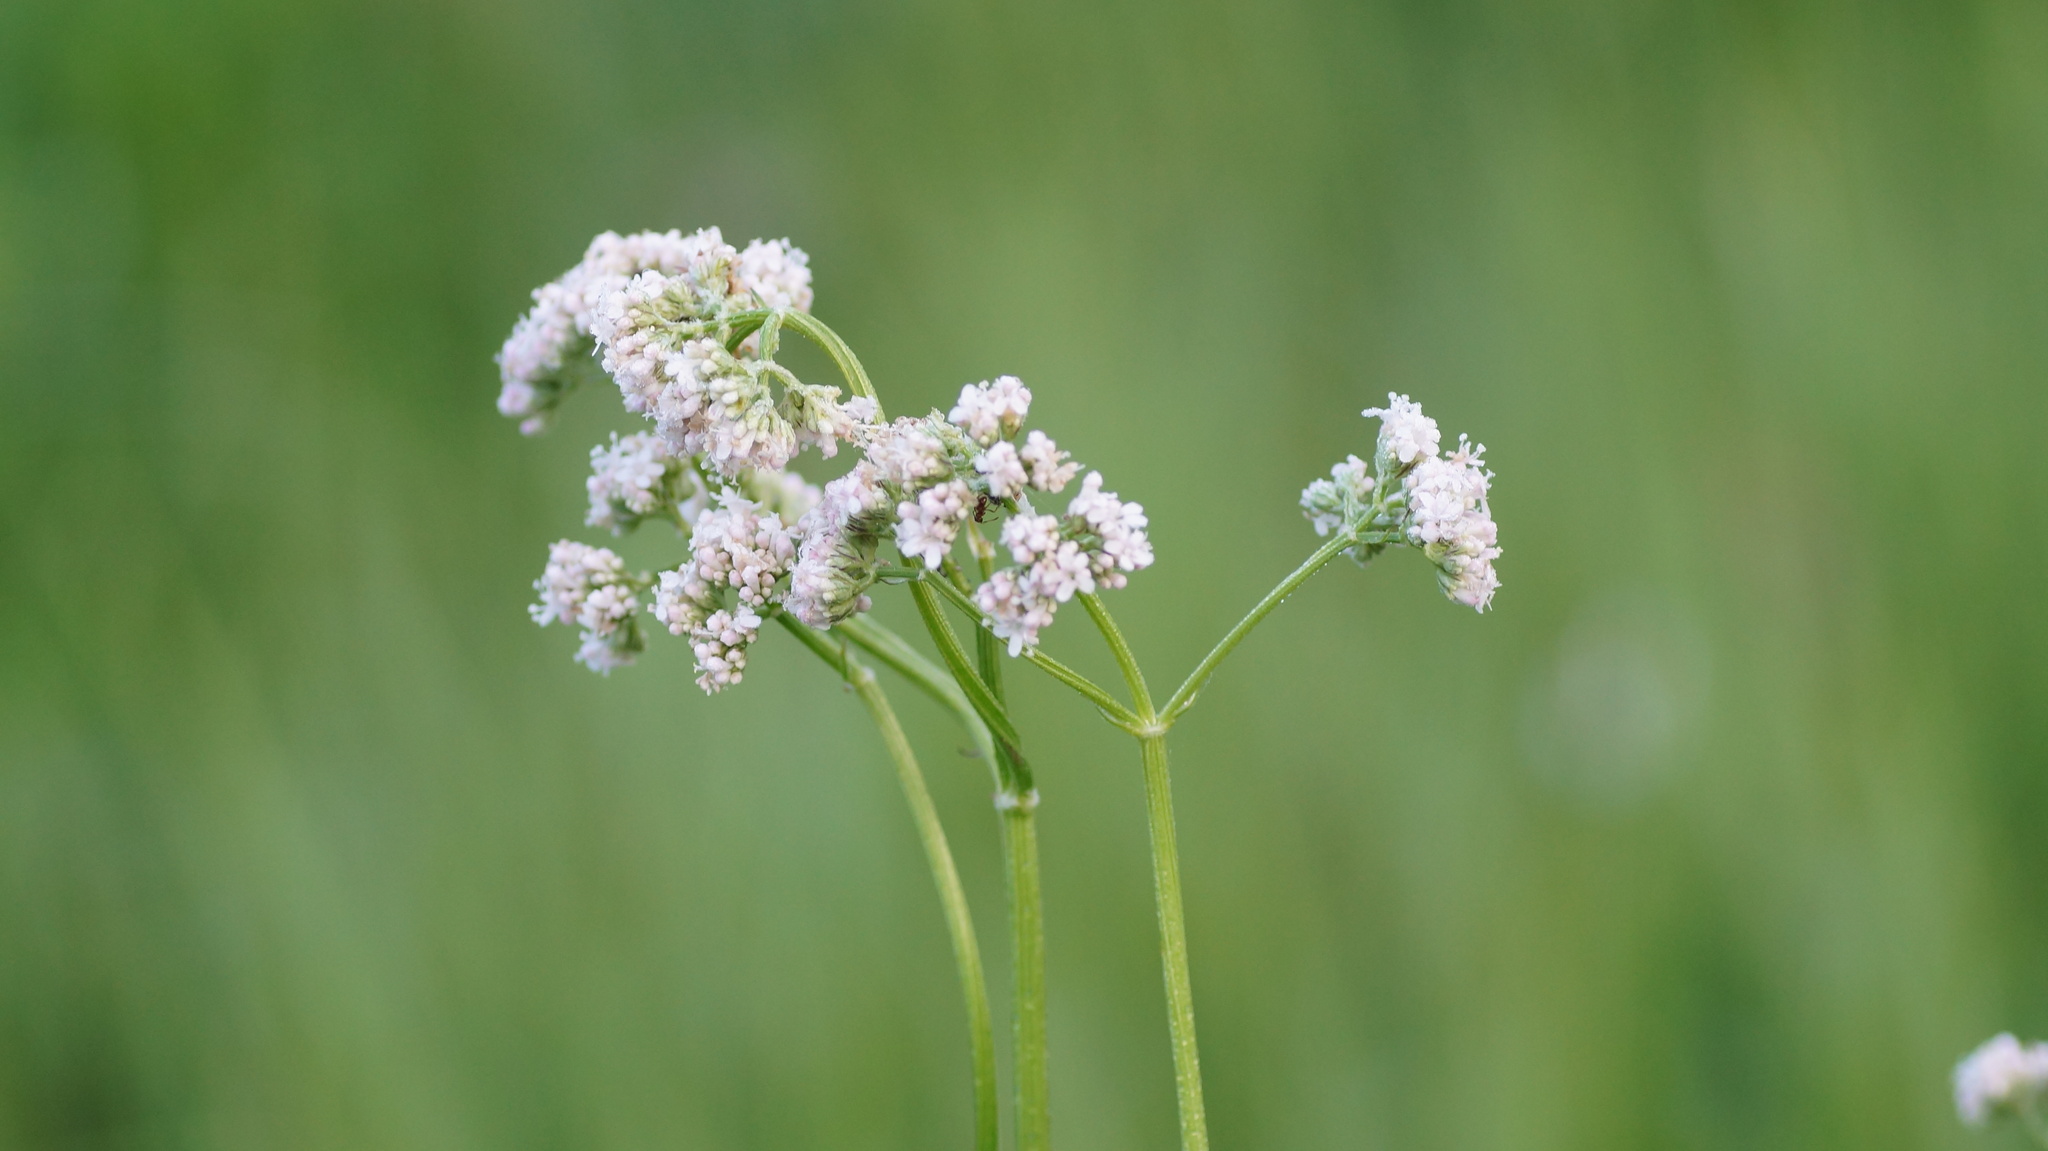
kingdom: Plantae
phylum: Tracheophyta
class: Magnoliopsida
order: Dipsacales
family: Caprifoliaceae
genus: Valeriana
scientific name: Valeriana officinalis
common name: Common valerian
